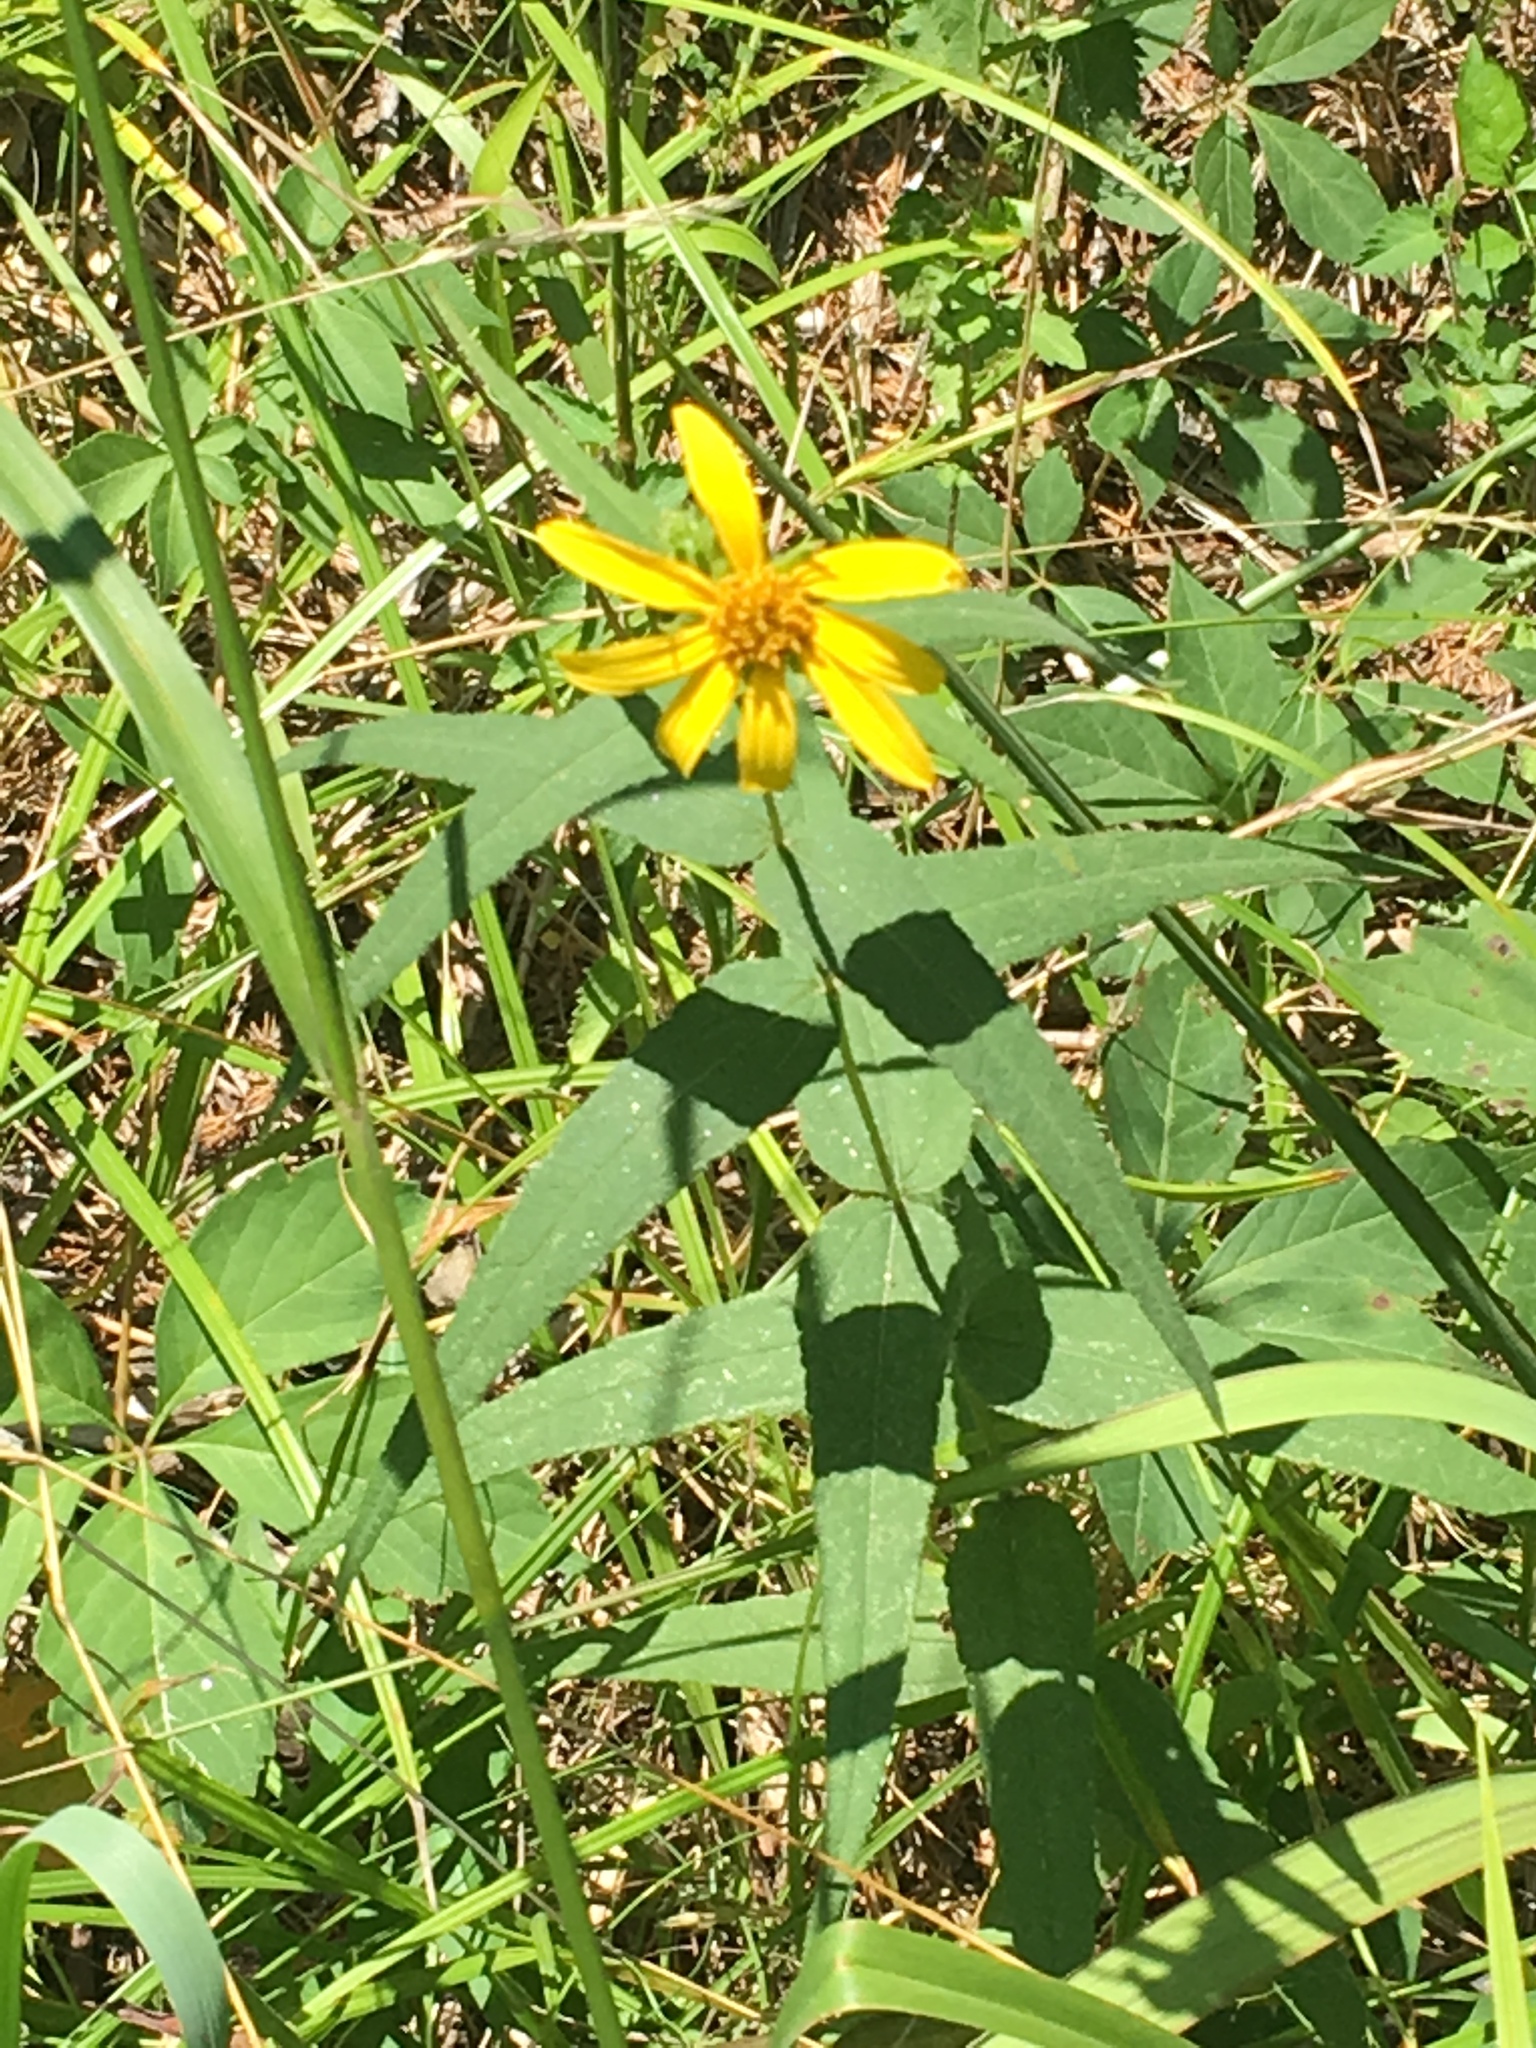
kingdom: Plantae
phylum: Tracheophyta
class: Magnoliopsida
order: Asterales
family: Asteraceae
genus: Helianthus
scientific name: Helianthus divaricatus
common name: Divergent sunflower
